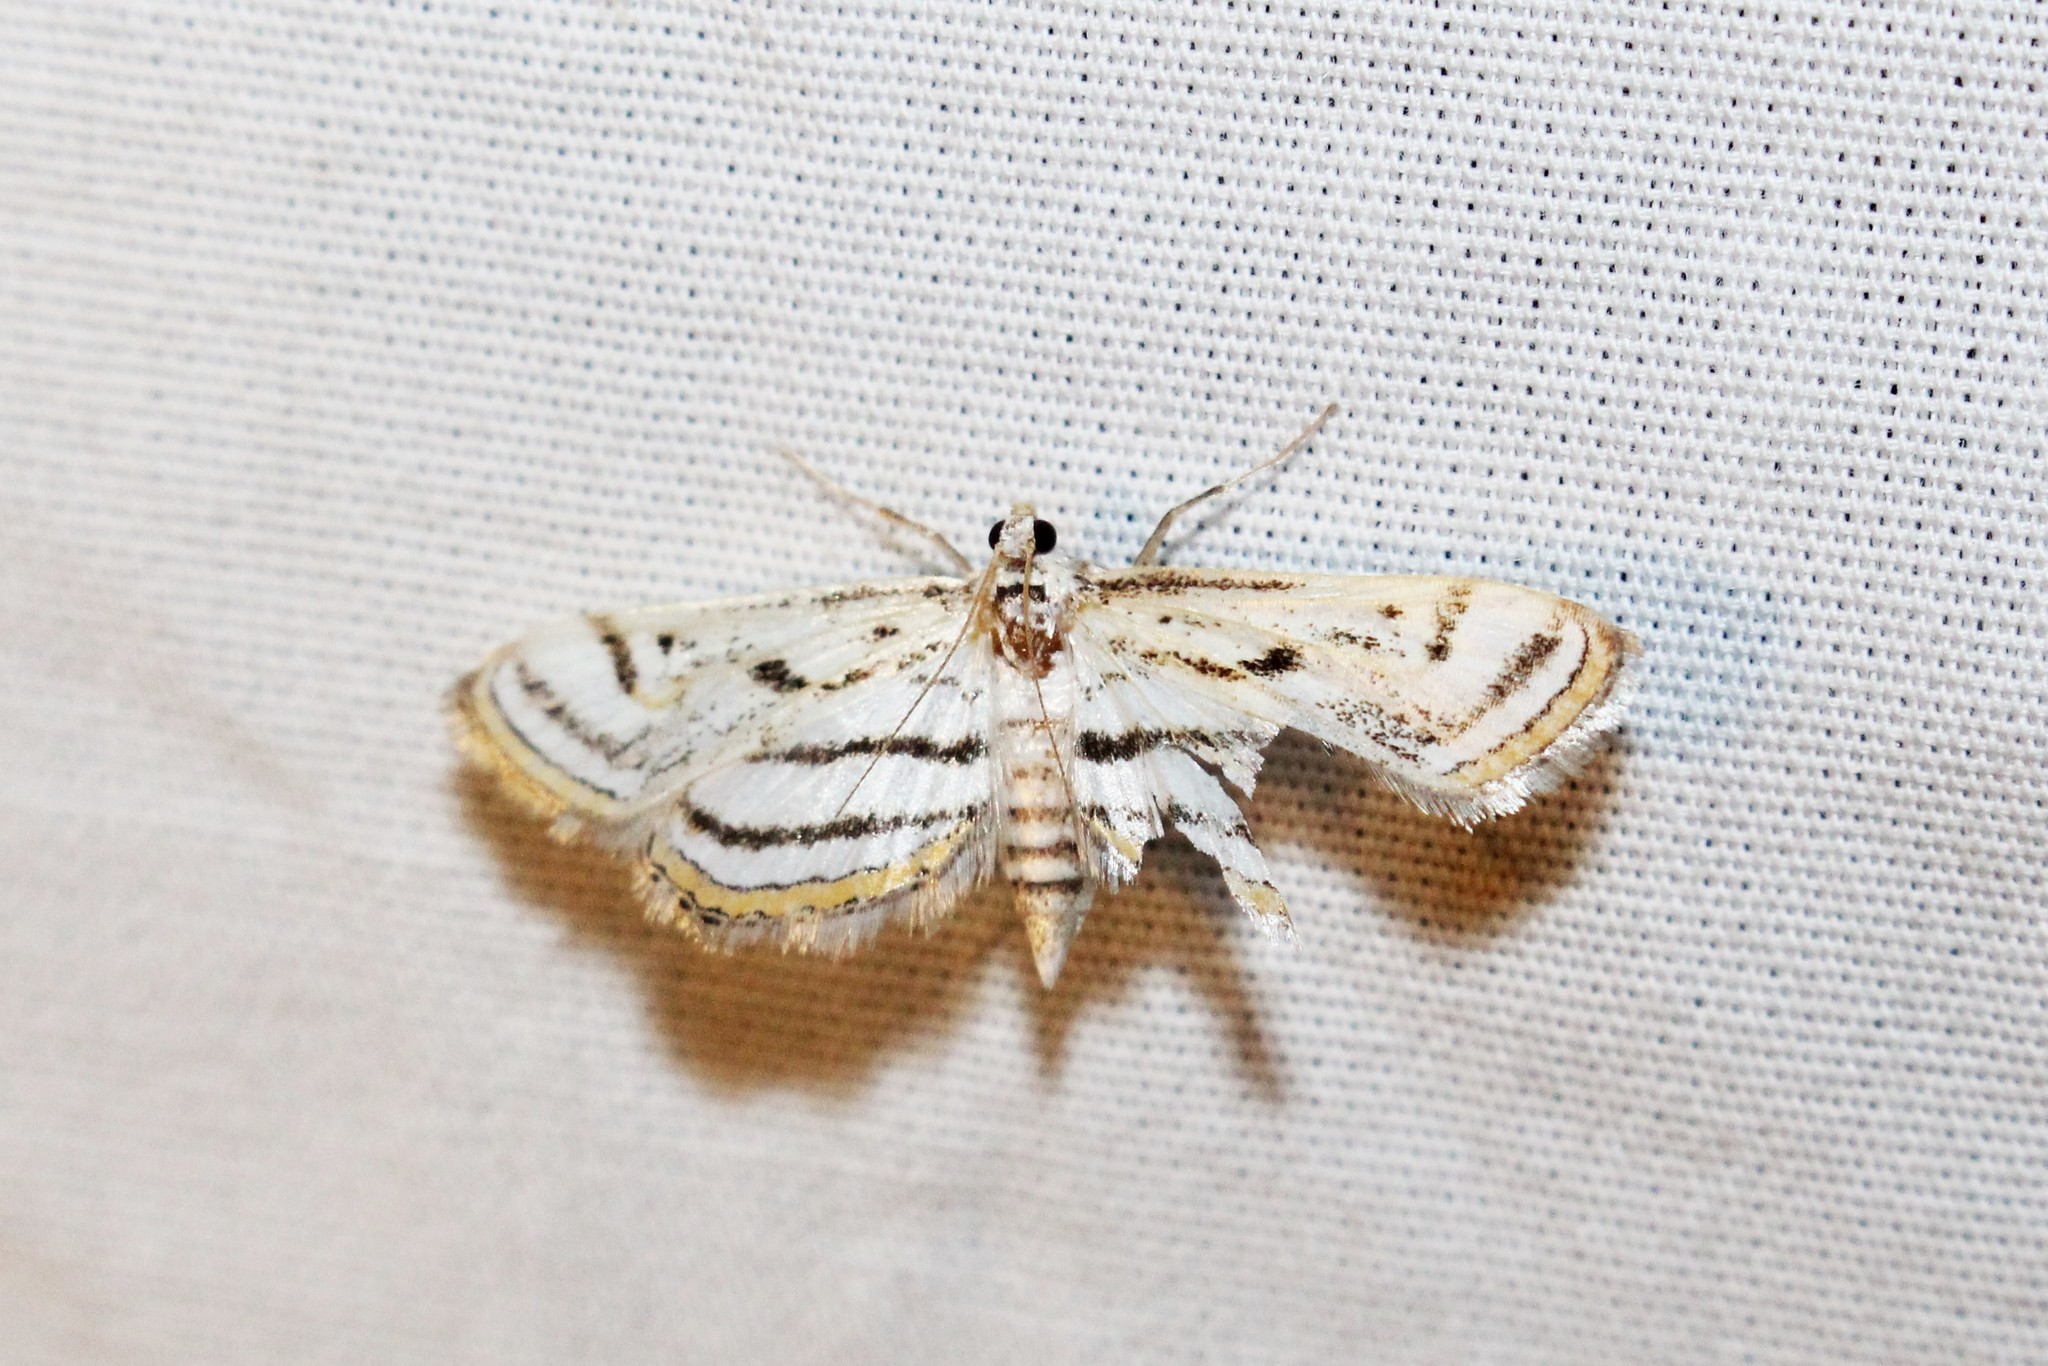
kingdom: Animalia
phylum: Arthropoda
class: Insecta
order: Lepidoptera
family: Crambidae
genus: Parapoynx
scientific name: Parapoynx badiusalis
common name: Chestnut-marked pondweed moth
